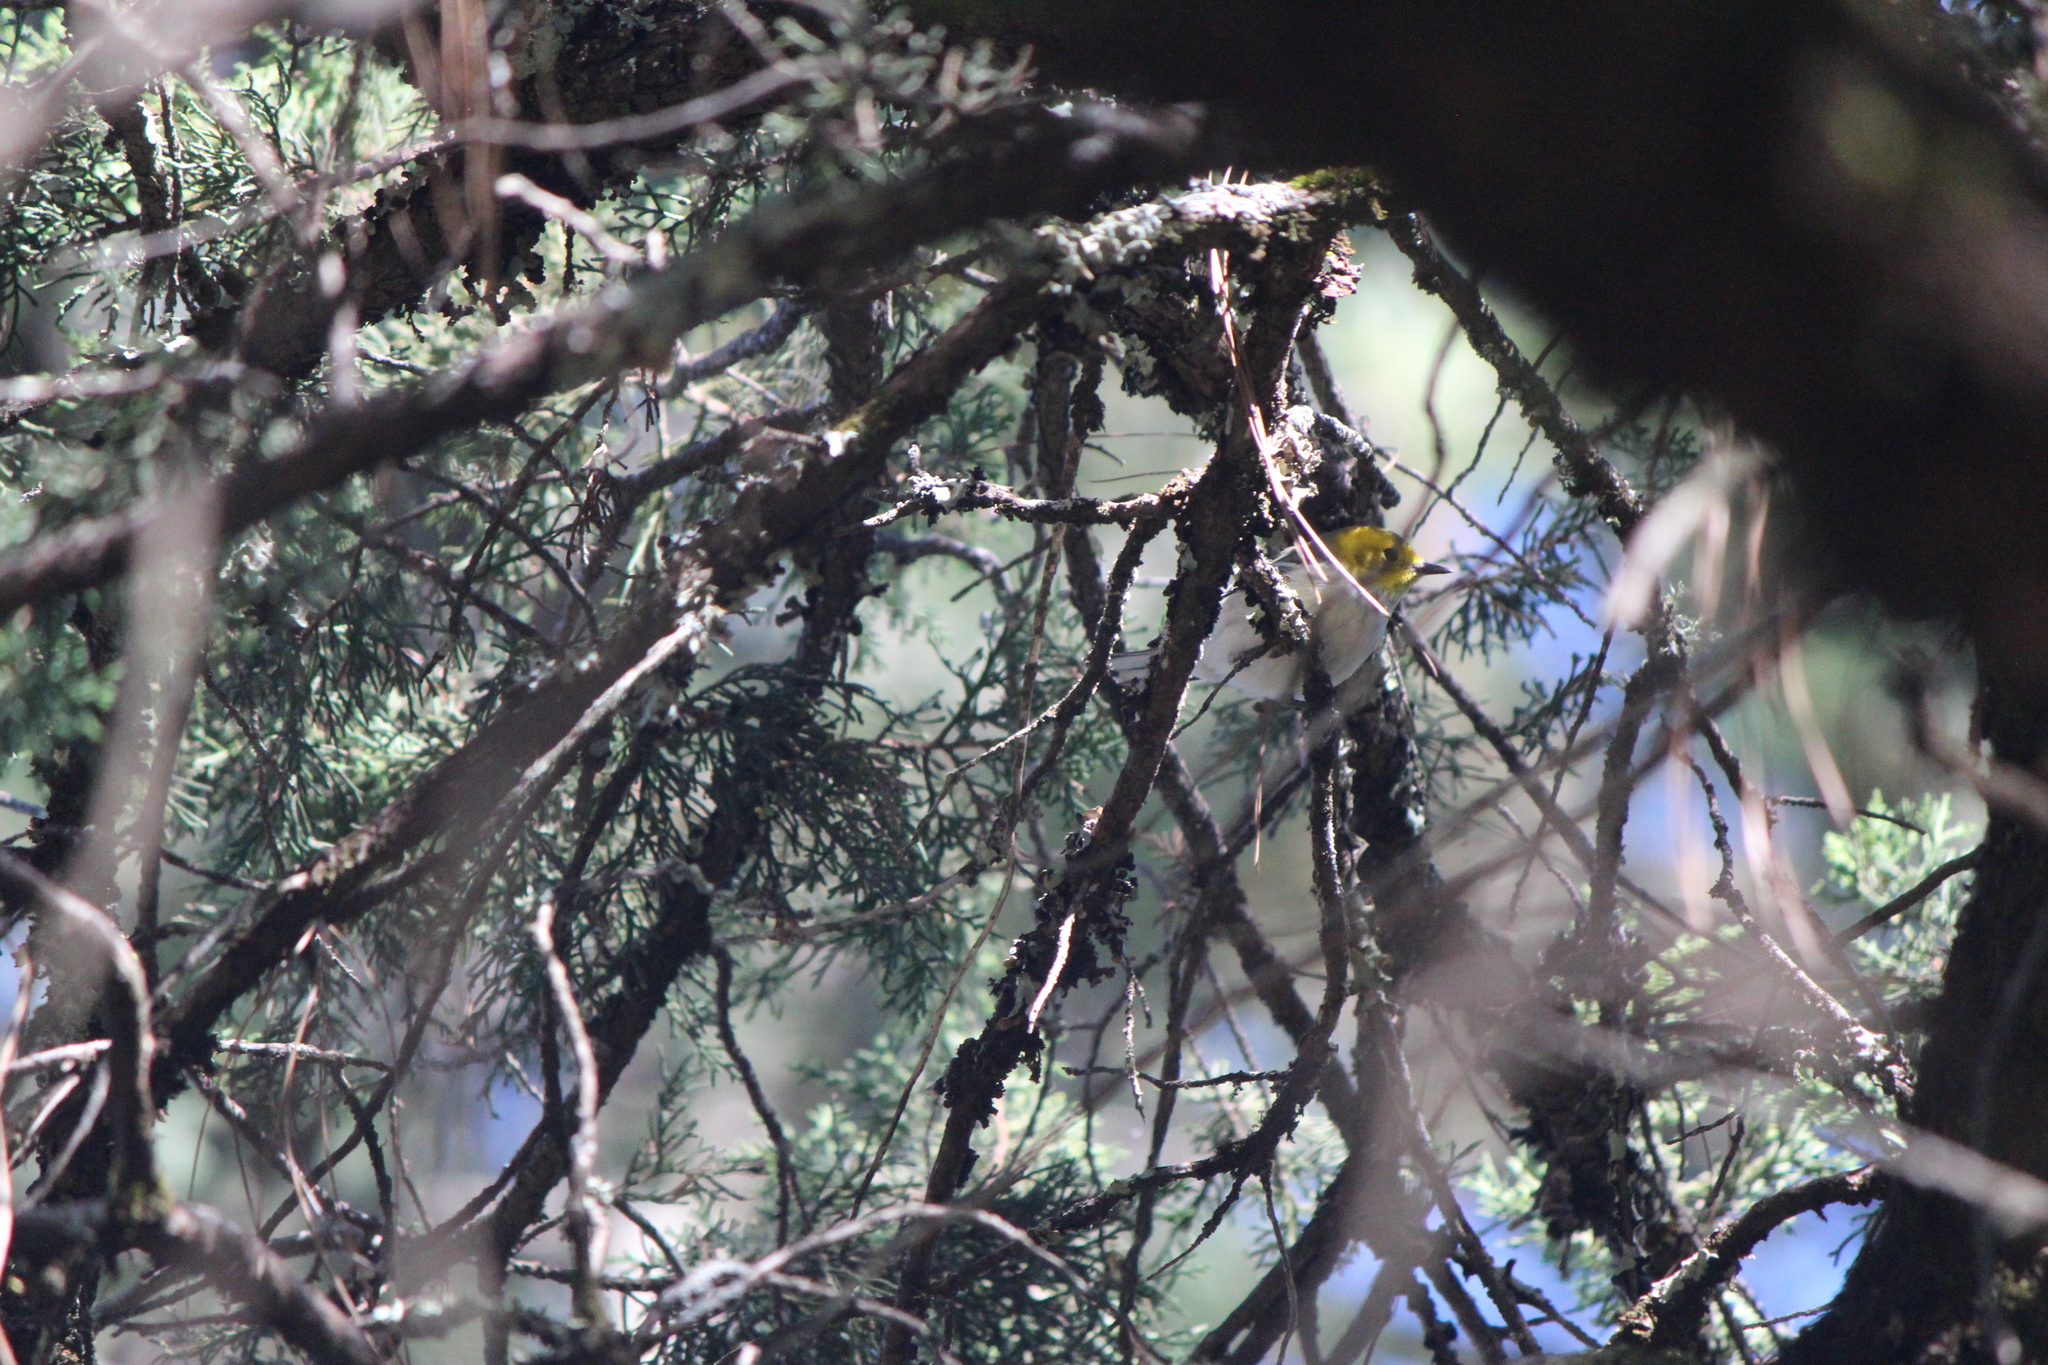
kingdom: Animalia
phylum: Chordata
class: Aves
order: Passeriformes
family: Parulidae
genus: Setophaga
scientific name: Setophaga occidentalis
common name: Hermit warbler
